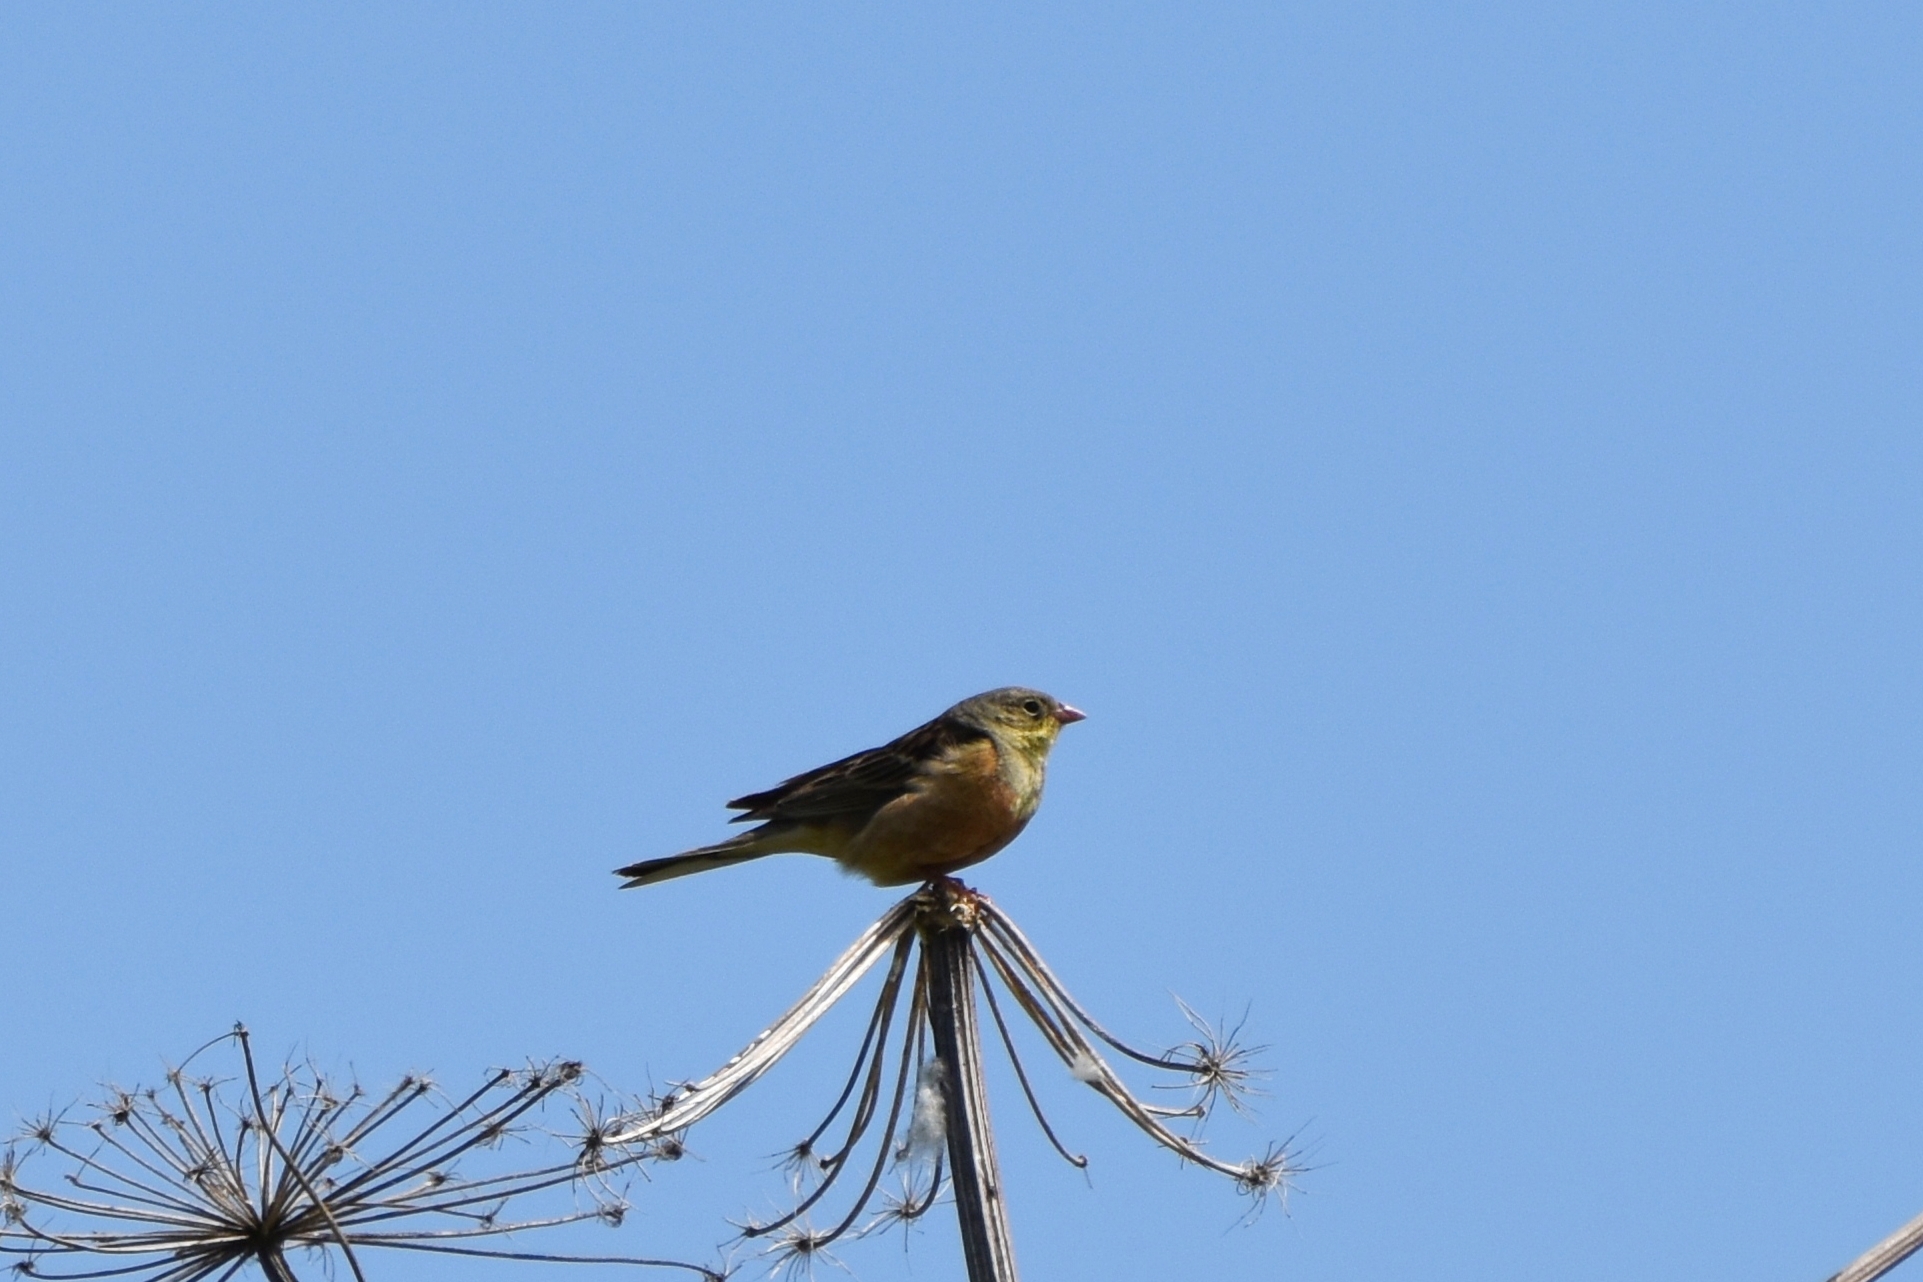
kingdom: Animalia
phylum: Chordata
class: Aves
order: Passeriformes
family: Emberizidae
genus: Emberiza
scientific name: Emberiza hortulana
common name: Ortolan bunting
